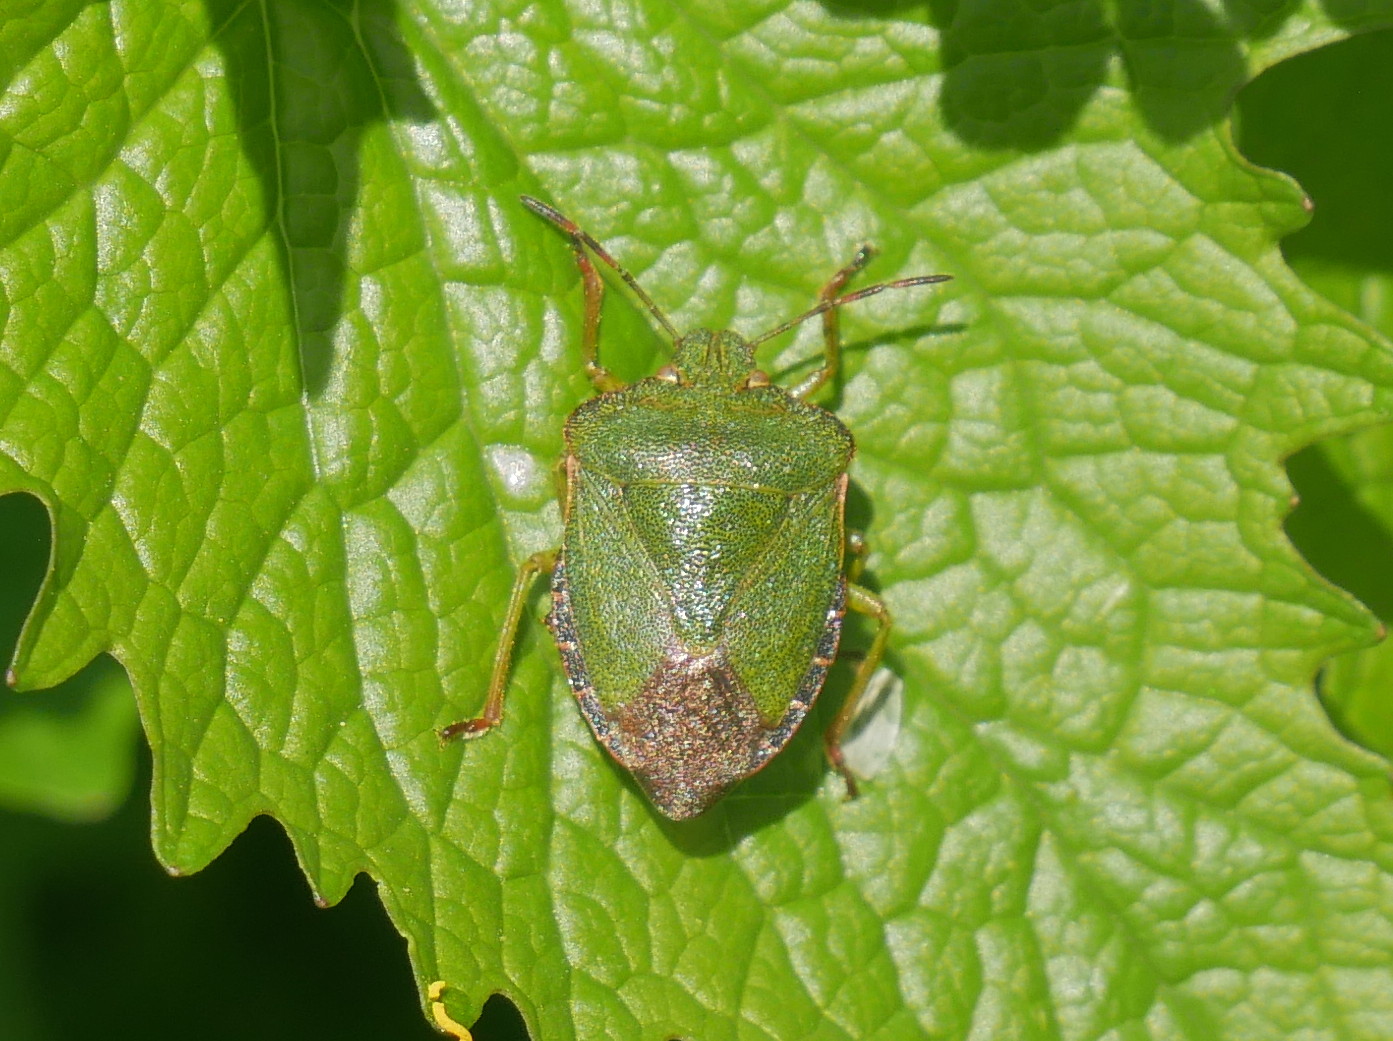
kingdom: Animalia
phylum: Arthropoda
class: Insecta
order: Hemiptera
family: Pentatomidae
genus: Palomena
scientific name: Palomena prasina
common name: Green shieldbug
